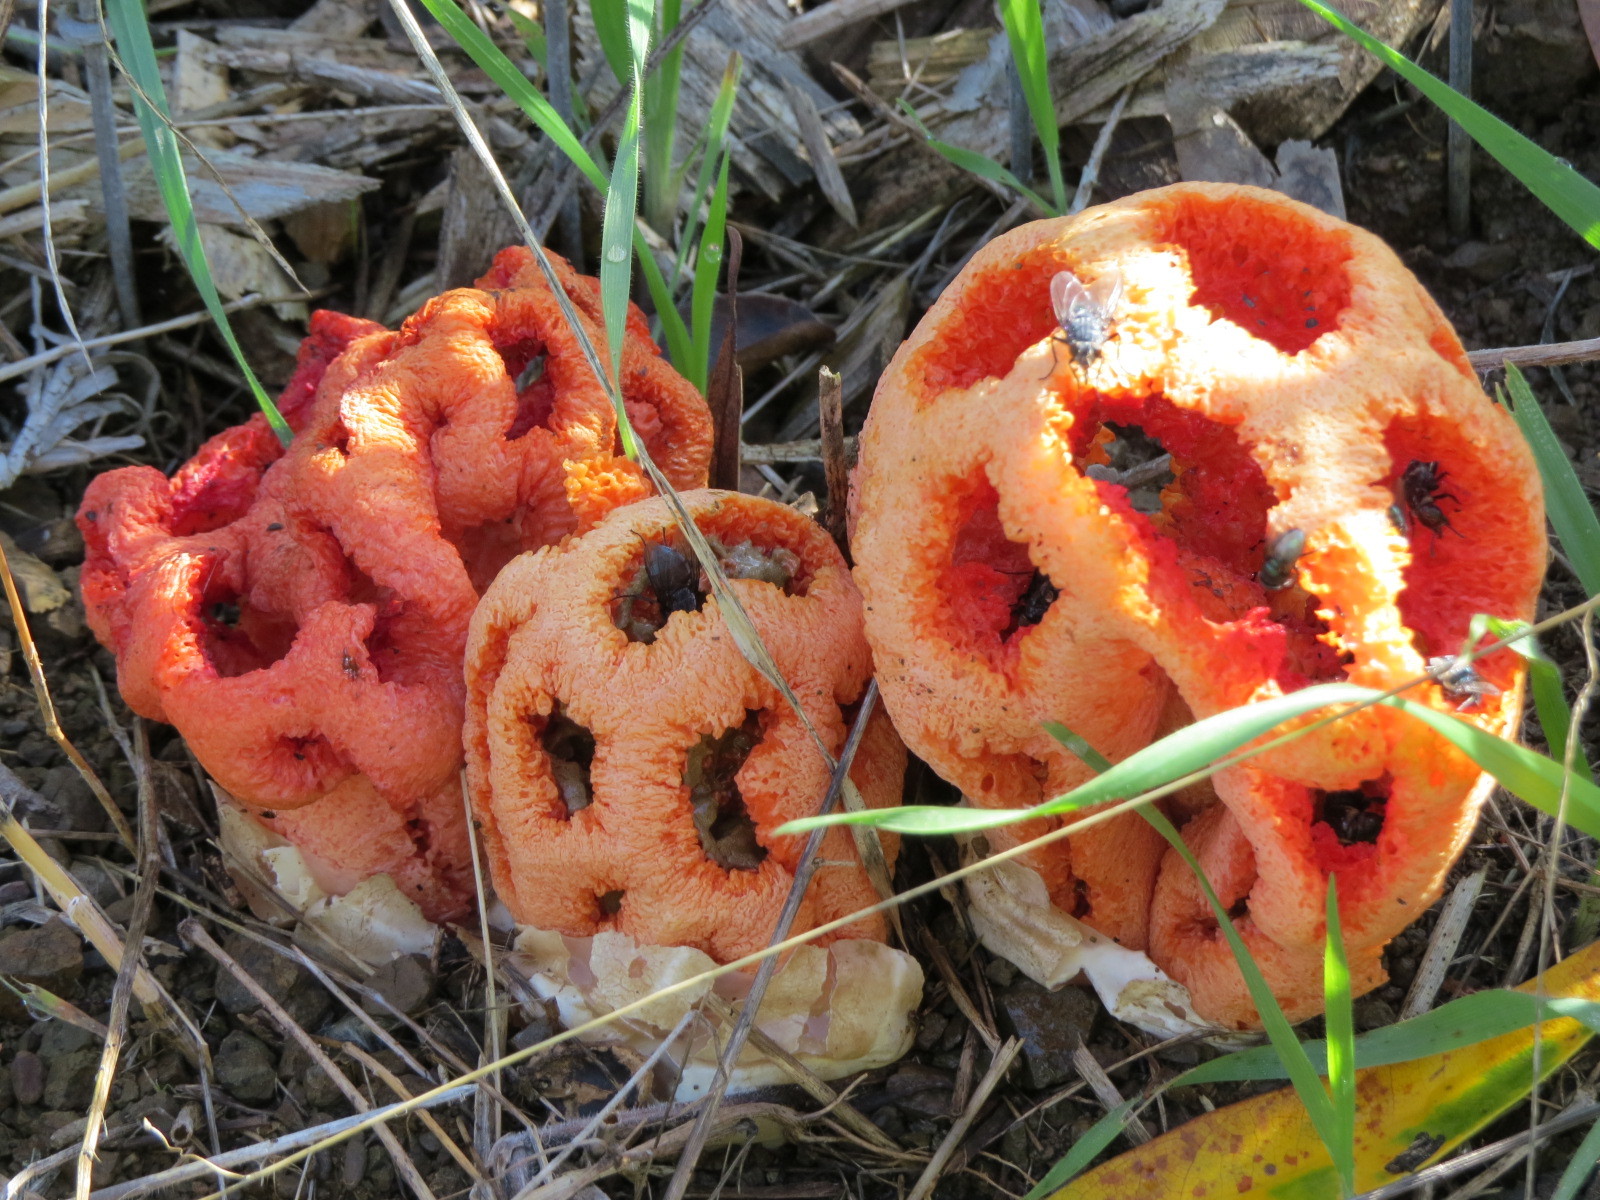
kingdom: Fungi
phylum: Basidiomycota
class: Agaricomycetes
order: Phallales
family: Phallaceae
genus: Clathrus
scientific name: Clathrus ruber
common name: Red cage
